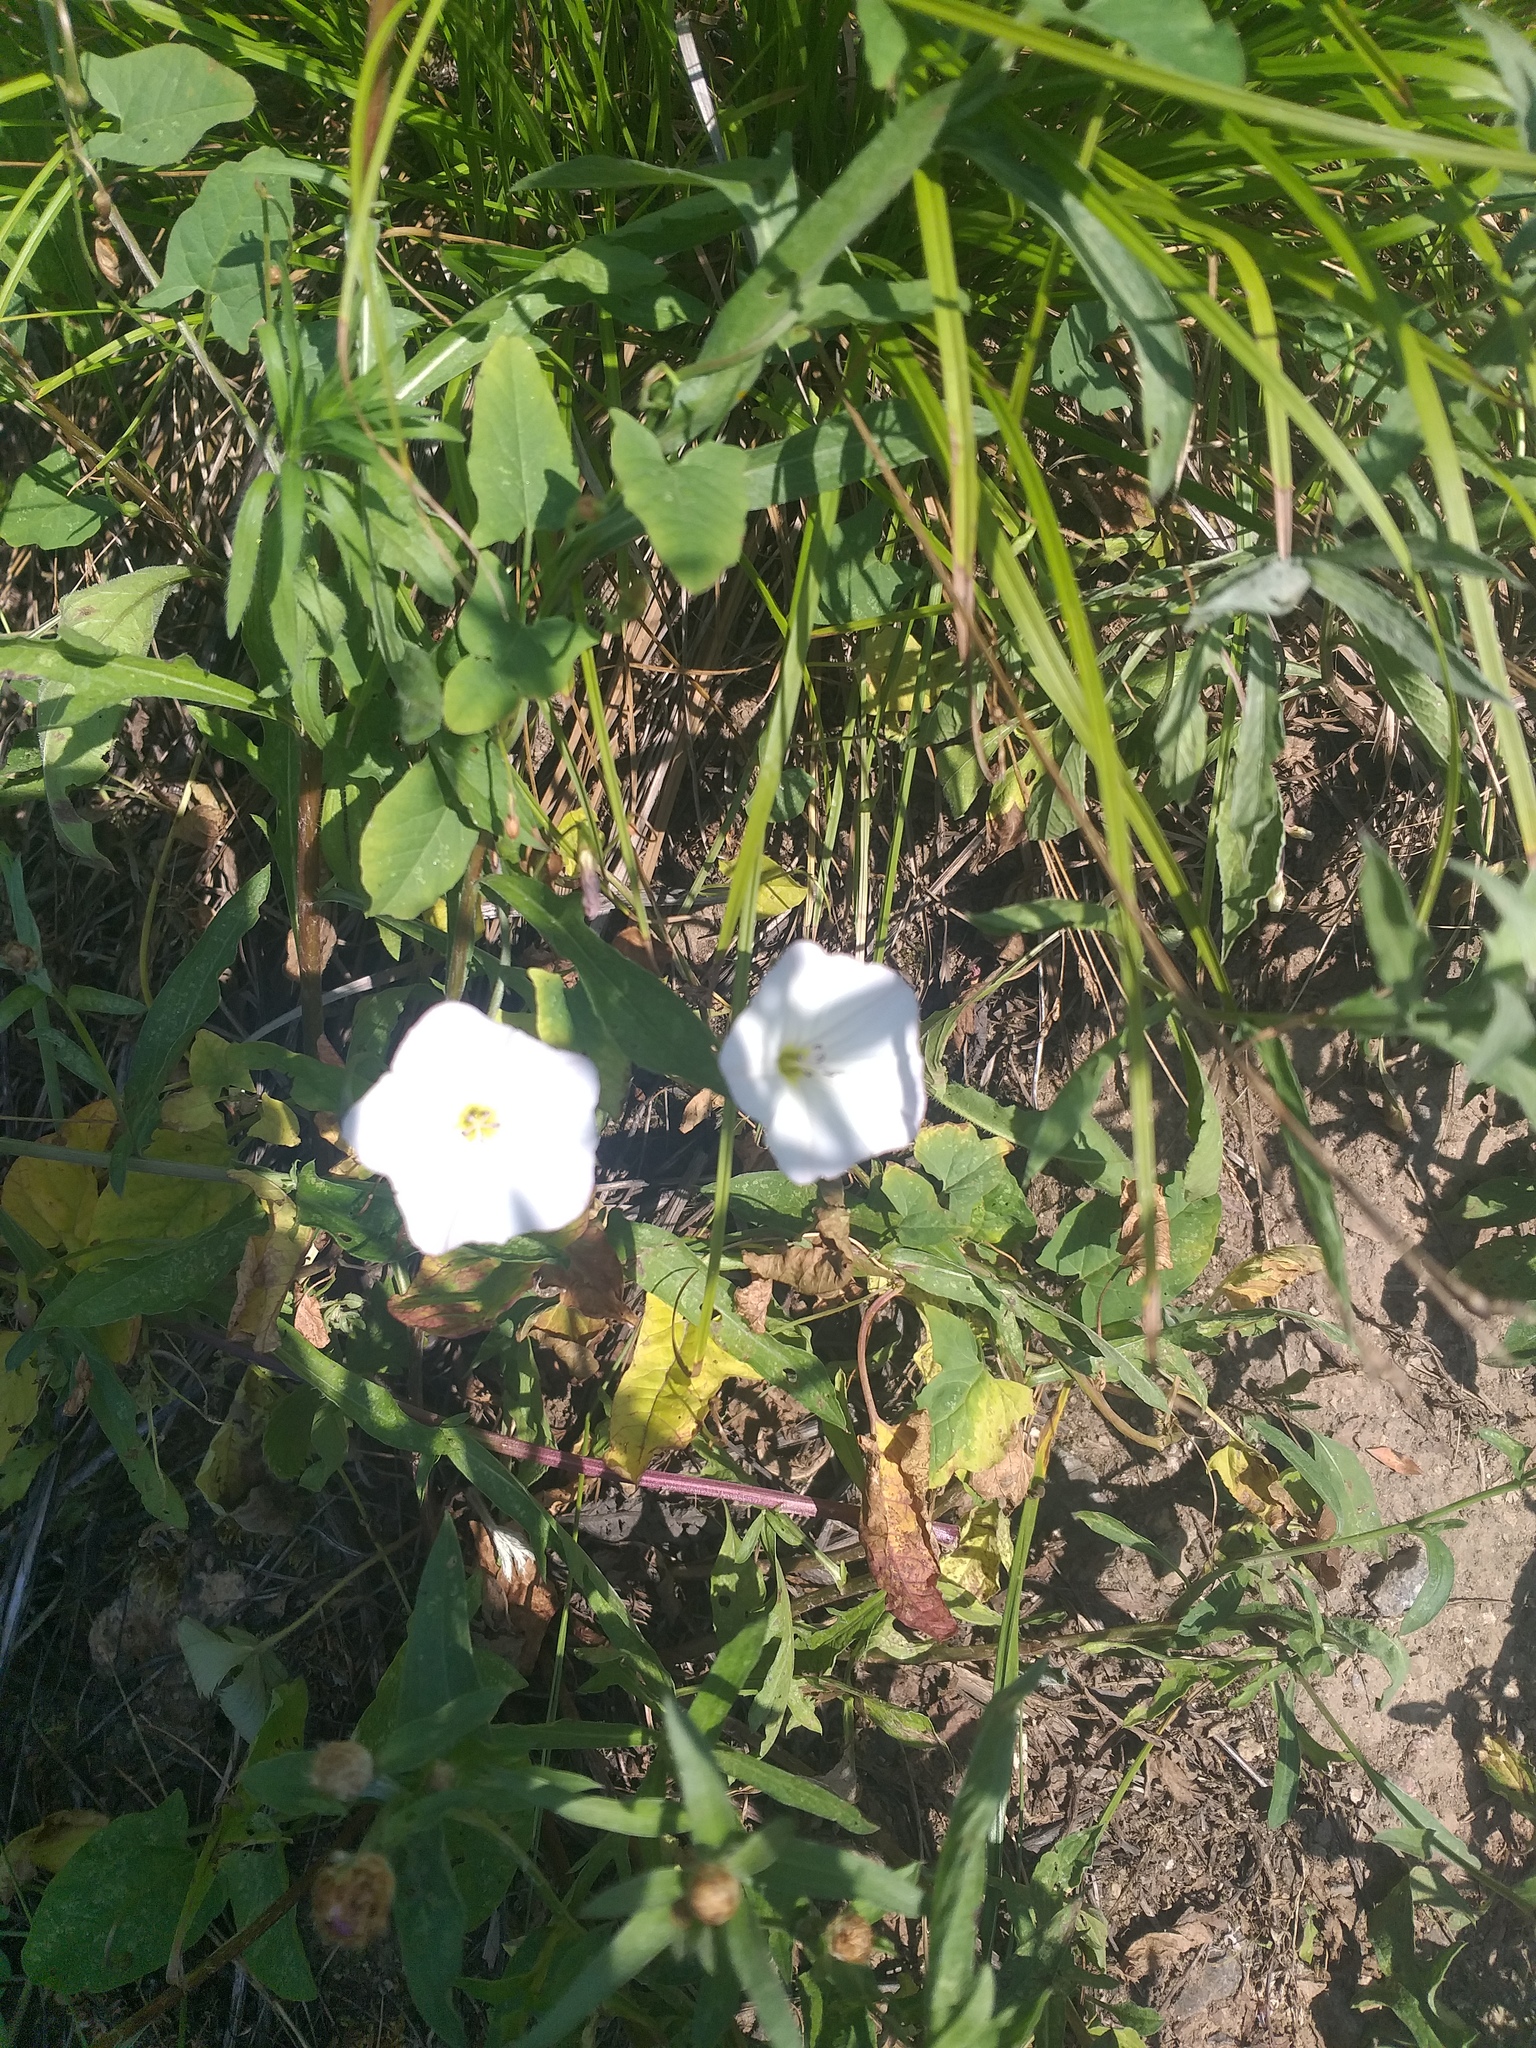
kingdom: Plantae
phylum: Tracheophyta
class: Magnoliopsida
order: Solanales
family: Convolvulaceae
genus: Convolvulus
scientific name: Convolvulus arvensis
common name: Field bindweed
